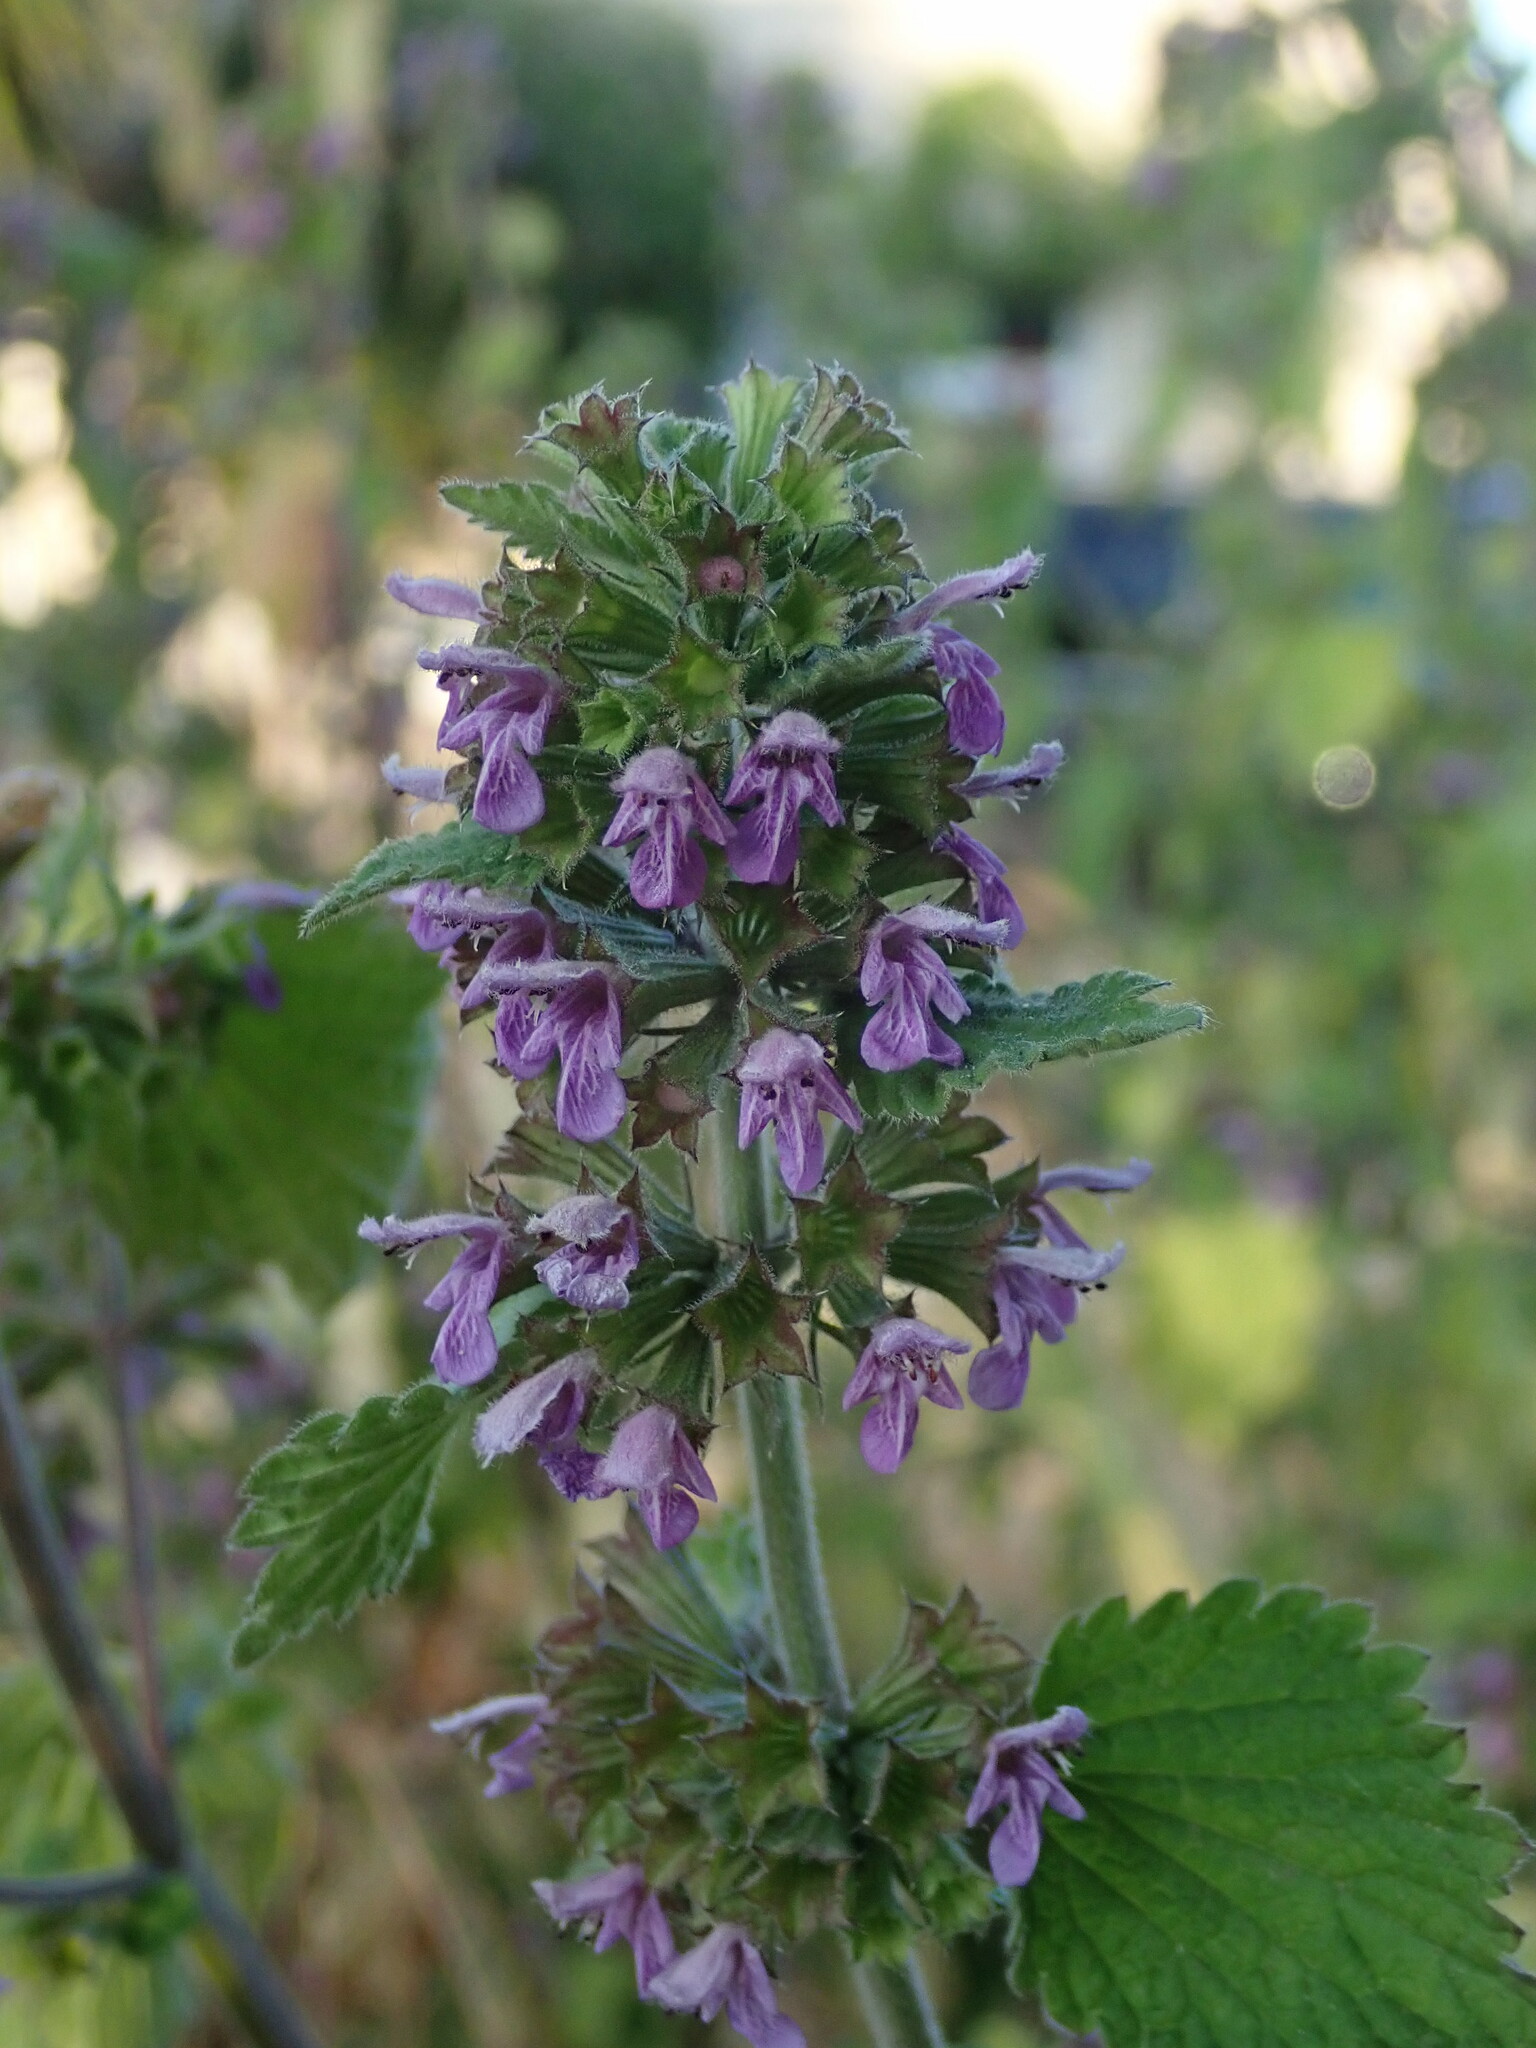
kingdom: Plantae
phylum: Tracheophyta
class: Magnoliopsida
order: Lamiales
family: Lamiaceae
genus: Ballota
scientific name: Ballota nigra
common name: Black horehound
